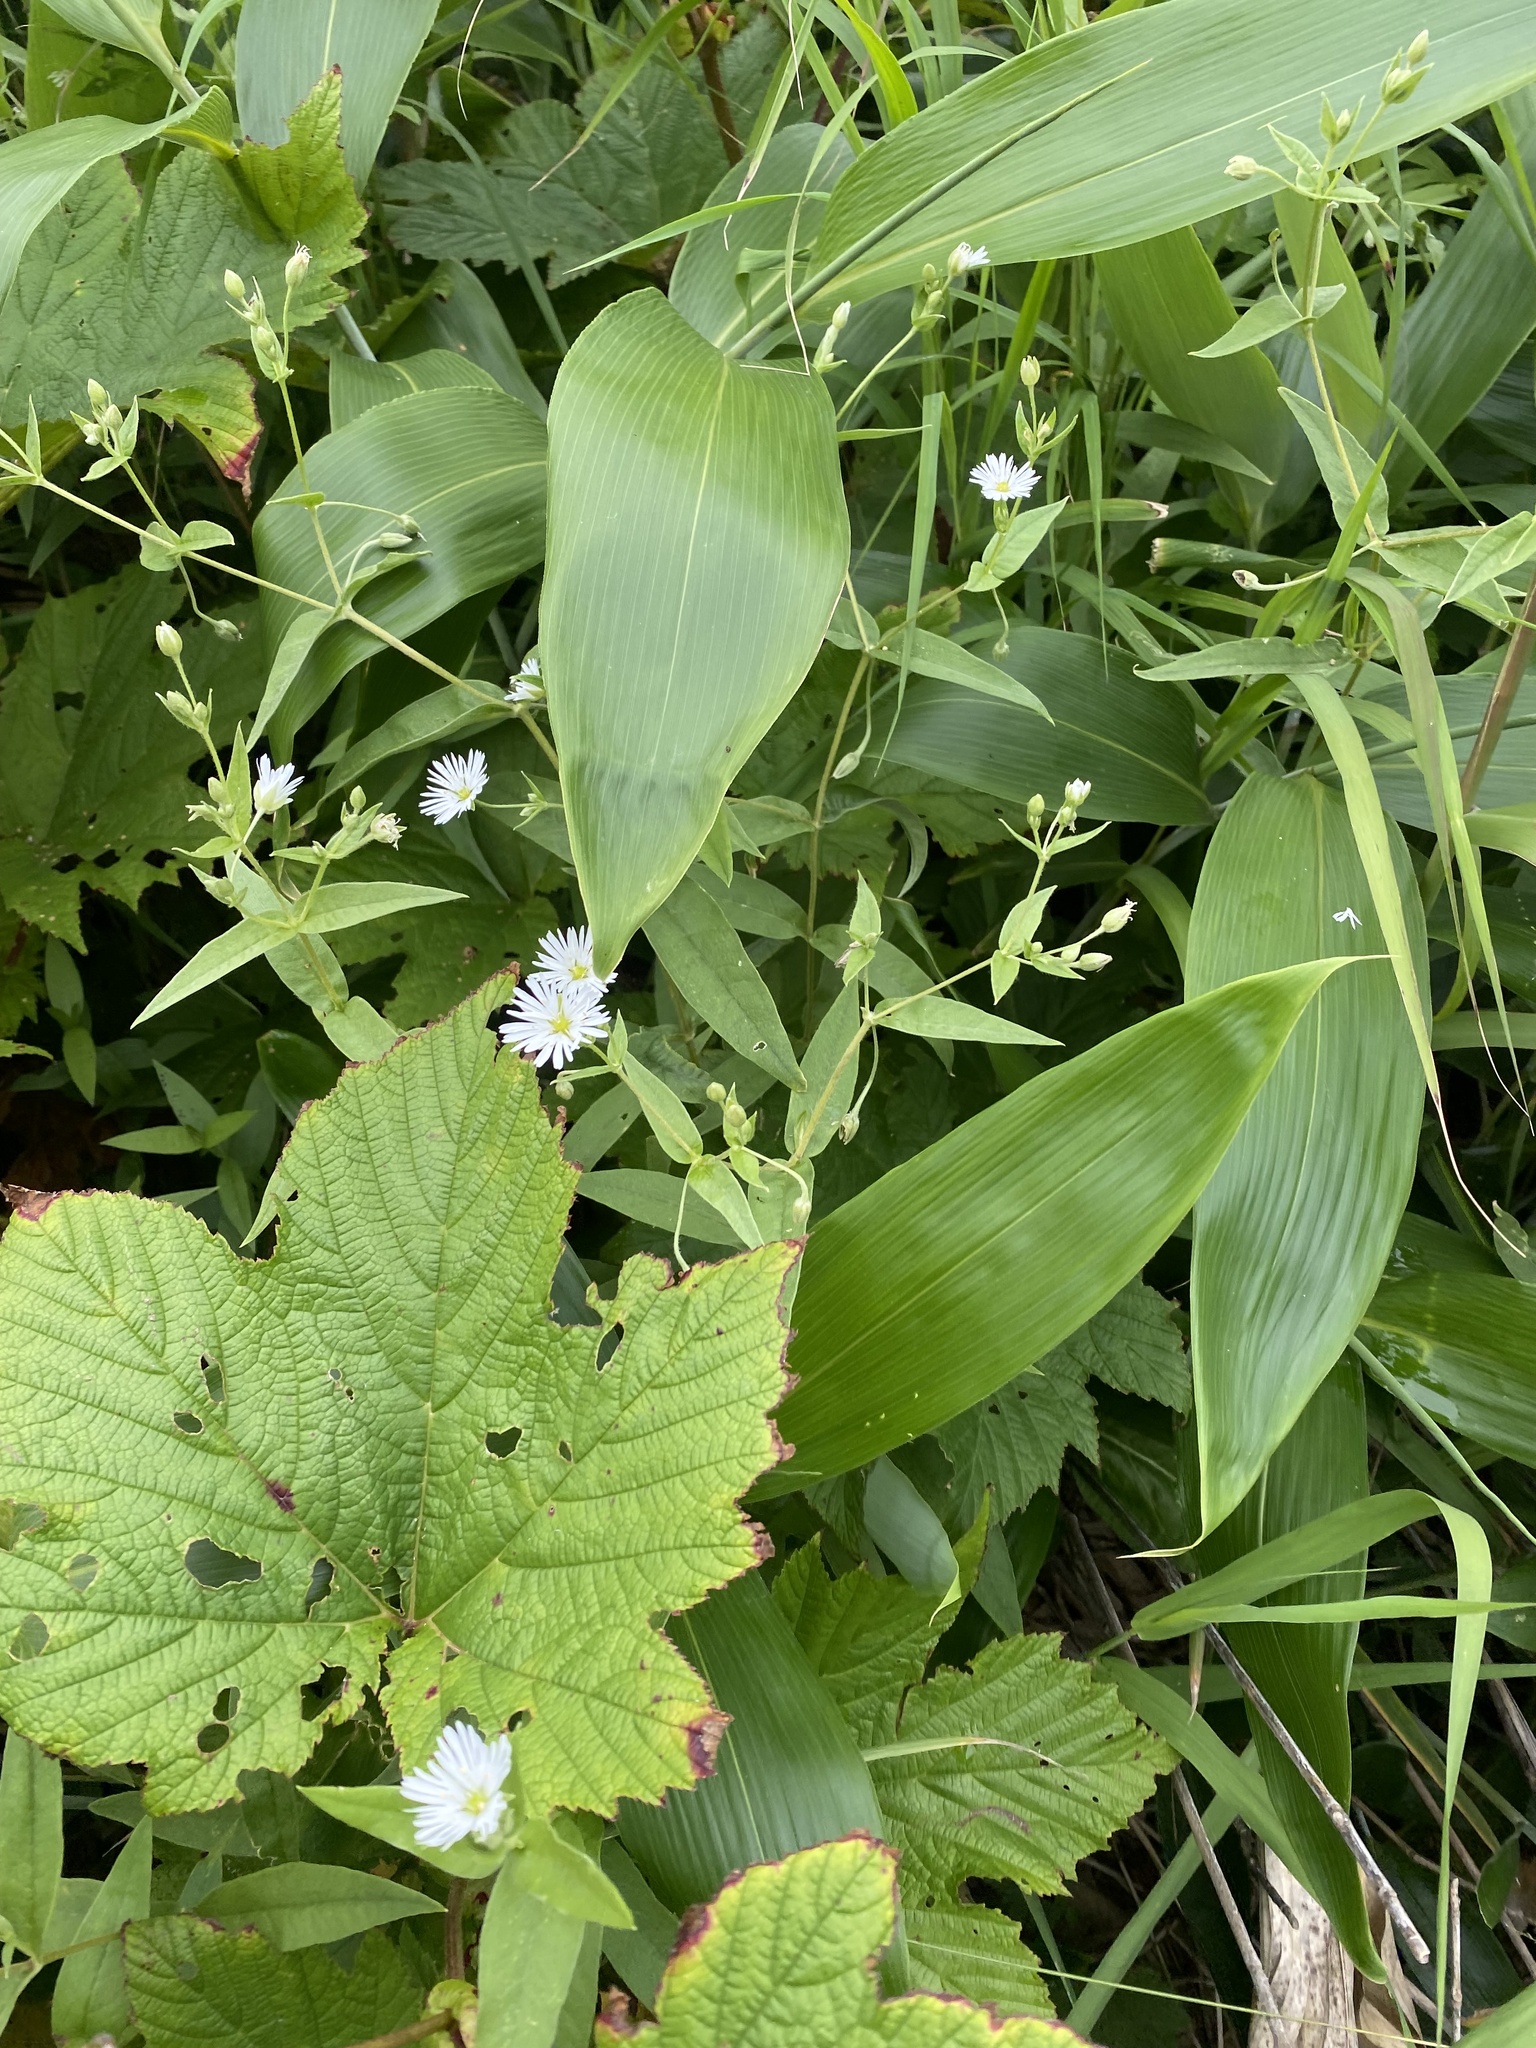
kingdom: Plantae
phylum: Tracheophyta
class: Magnoliopsida
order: Caryophyllales
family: Caryophyllaceae
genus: Stellaria
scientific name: Stellaria radians
